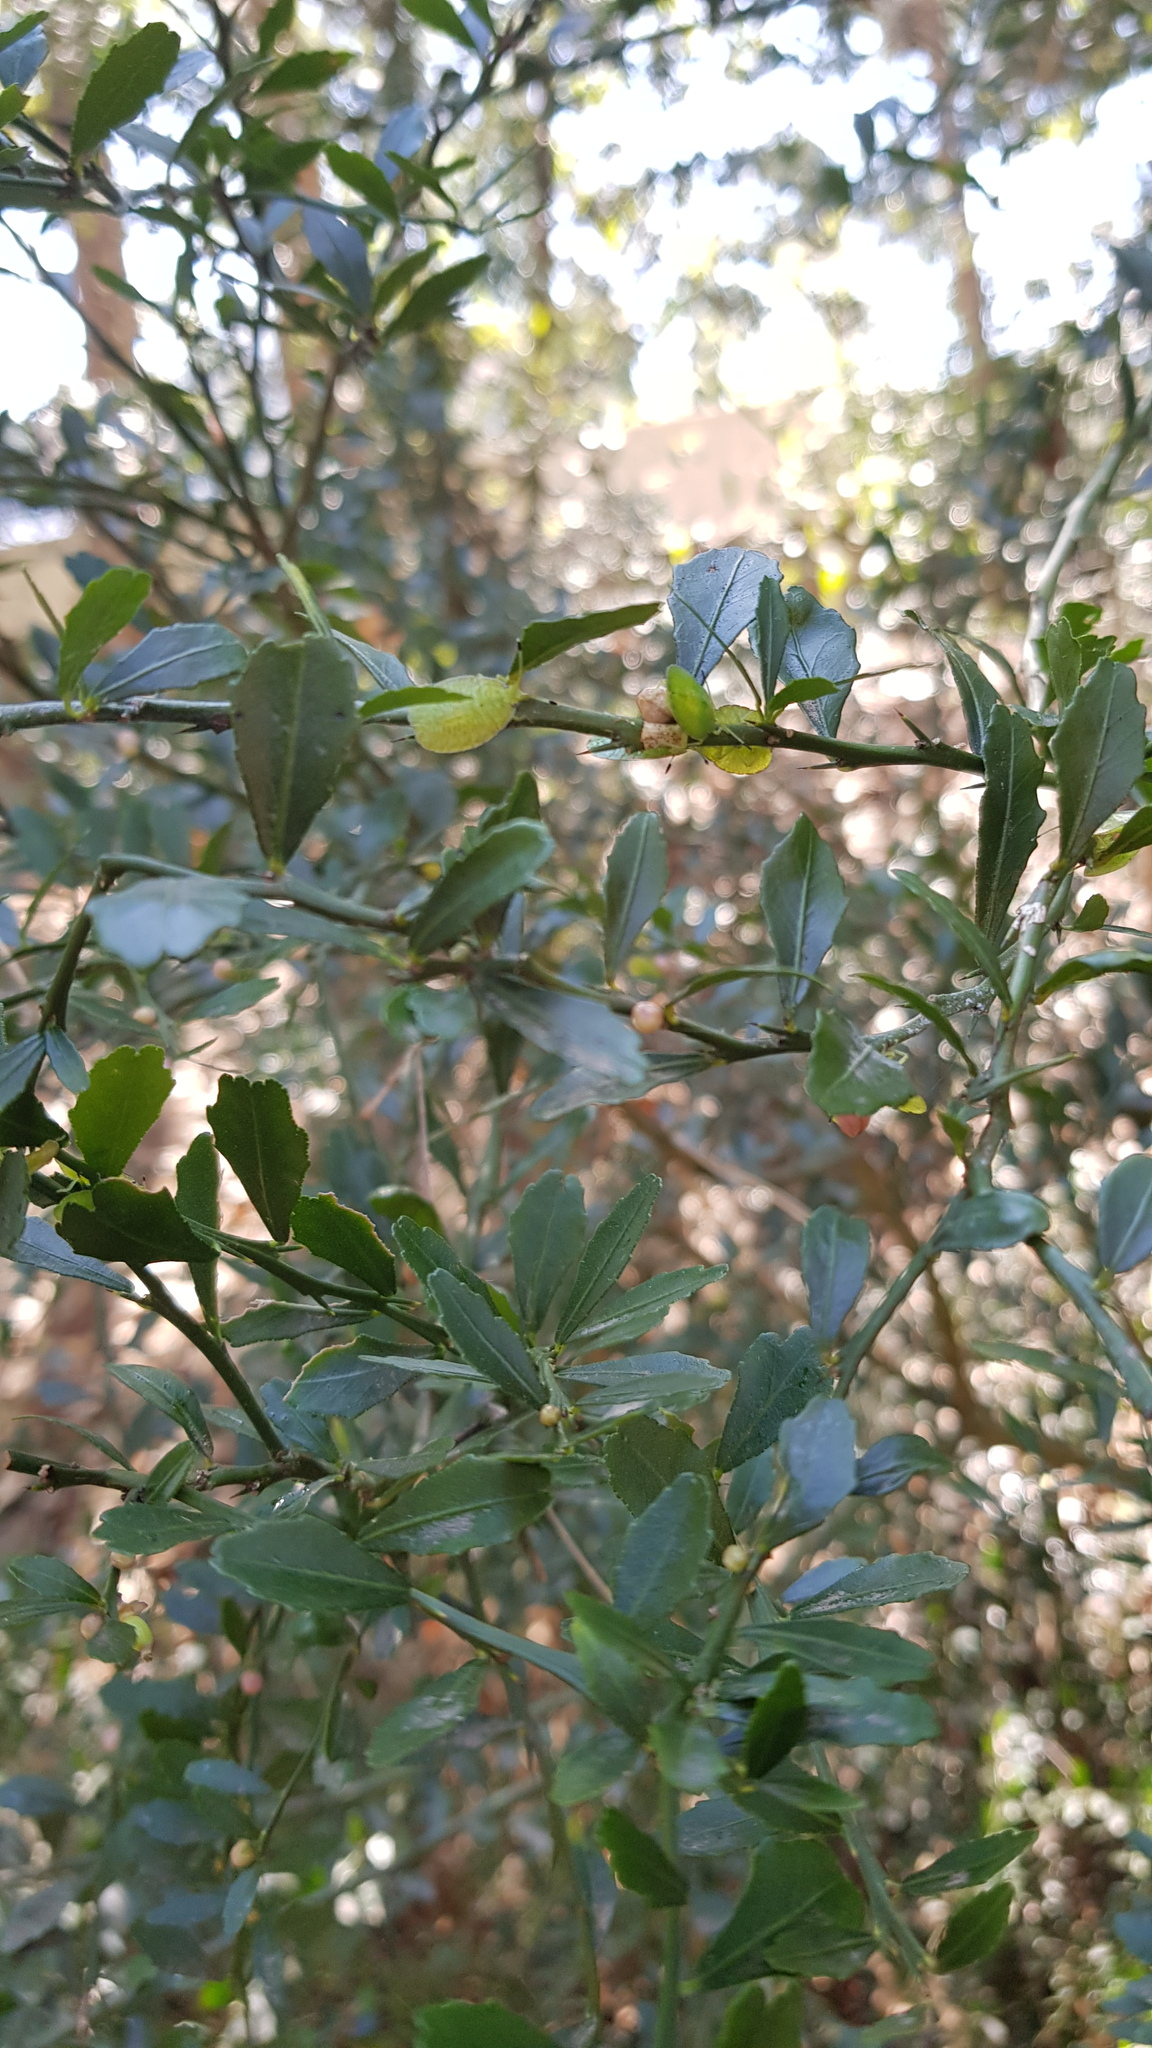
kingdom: Animalia
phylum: Arthropoda
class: Insecta
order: Hemiptera
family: Tessaratomidae
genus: Musgraveia
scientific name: Musgraveia sulciventris
